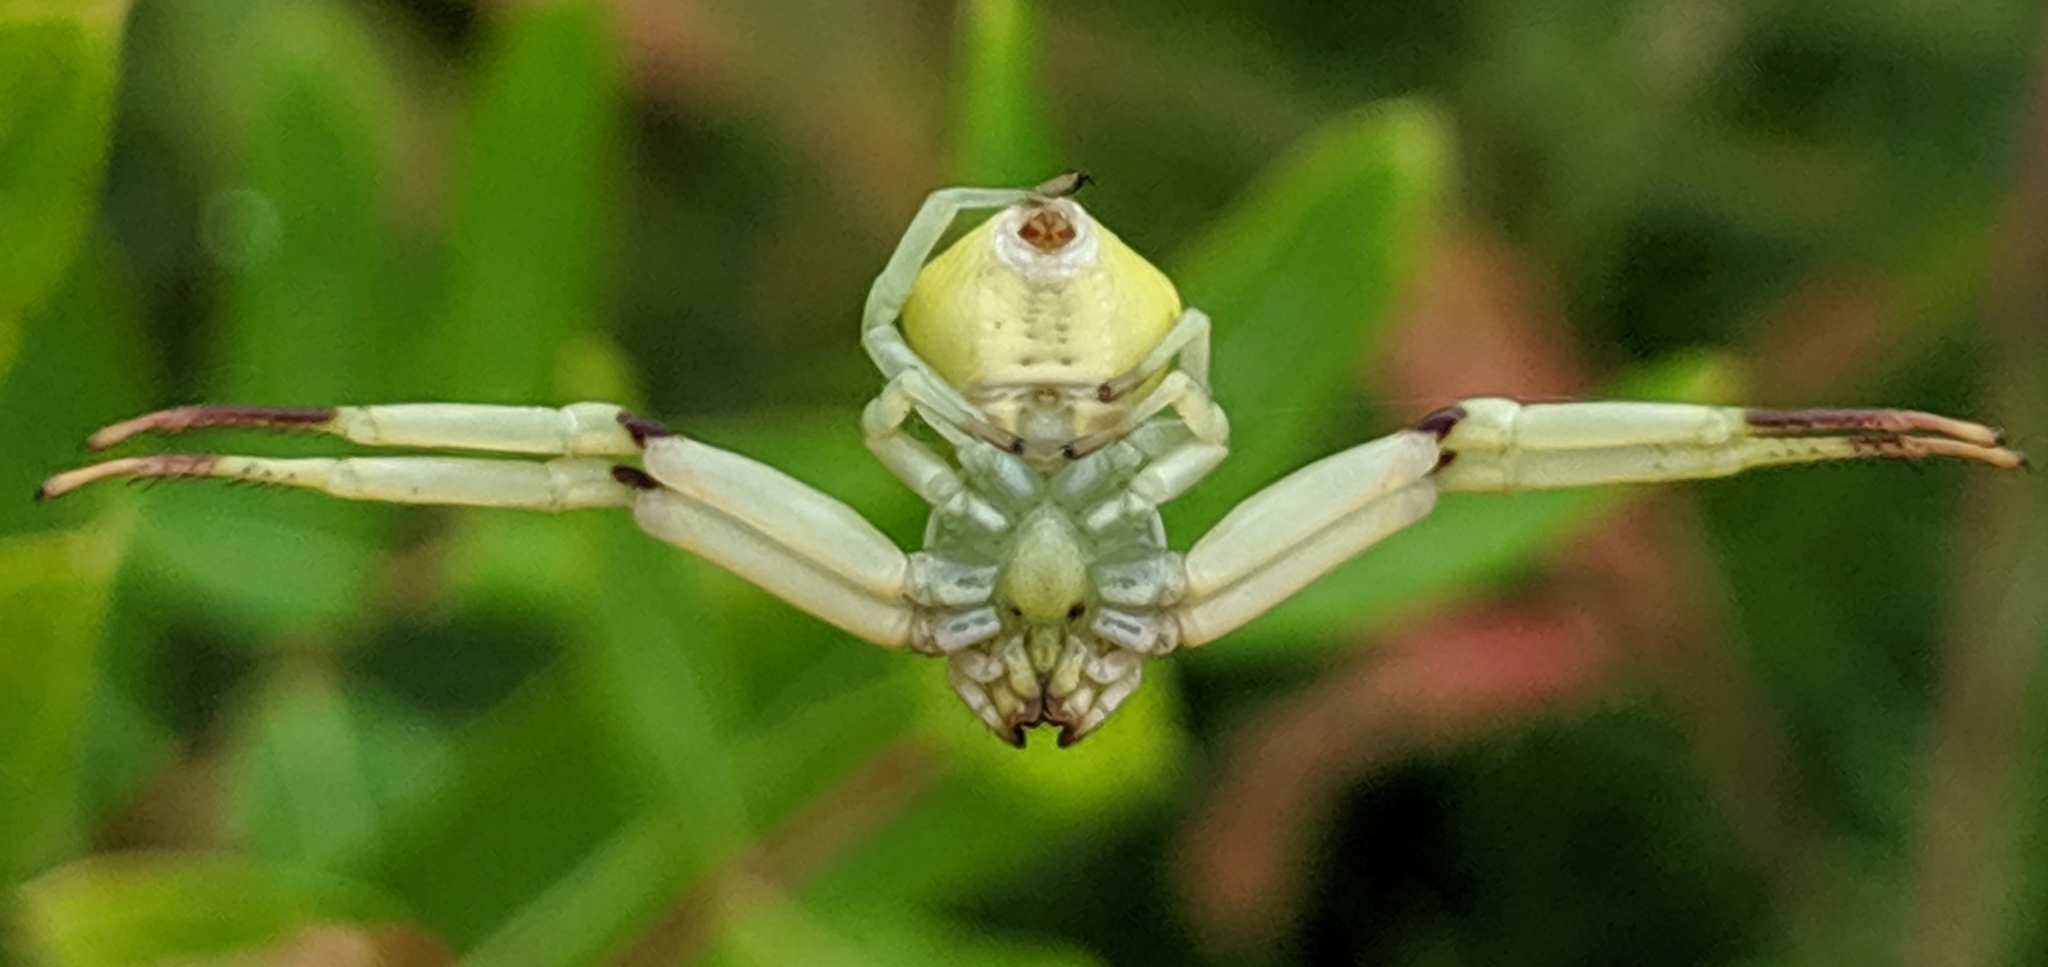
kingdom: Animalia
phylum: Arthropoda
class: Arachnida
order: Araneae
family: Thomisidae
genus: Misumenoides
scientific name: Misumenoides formosipes
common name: White-banded crab spider
